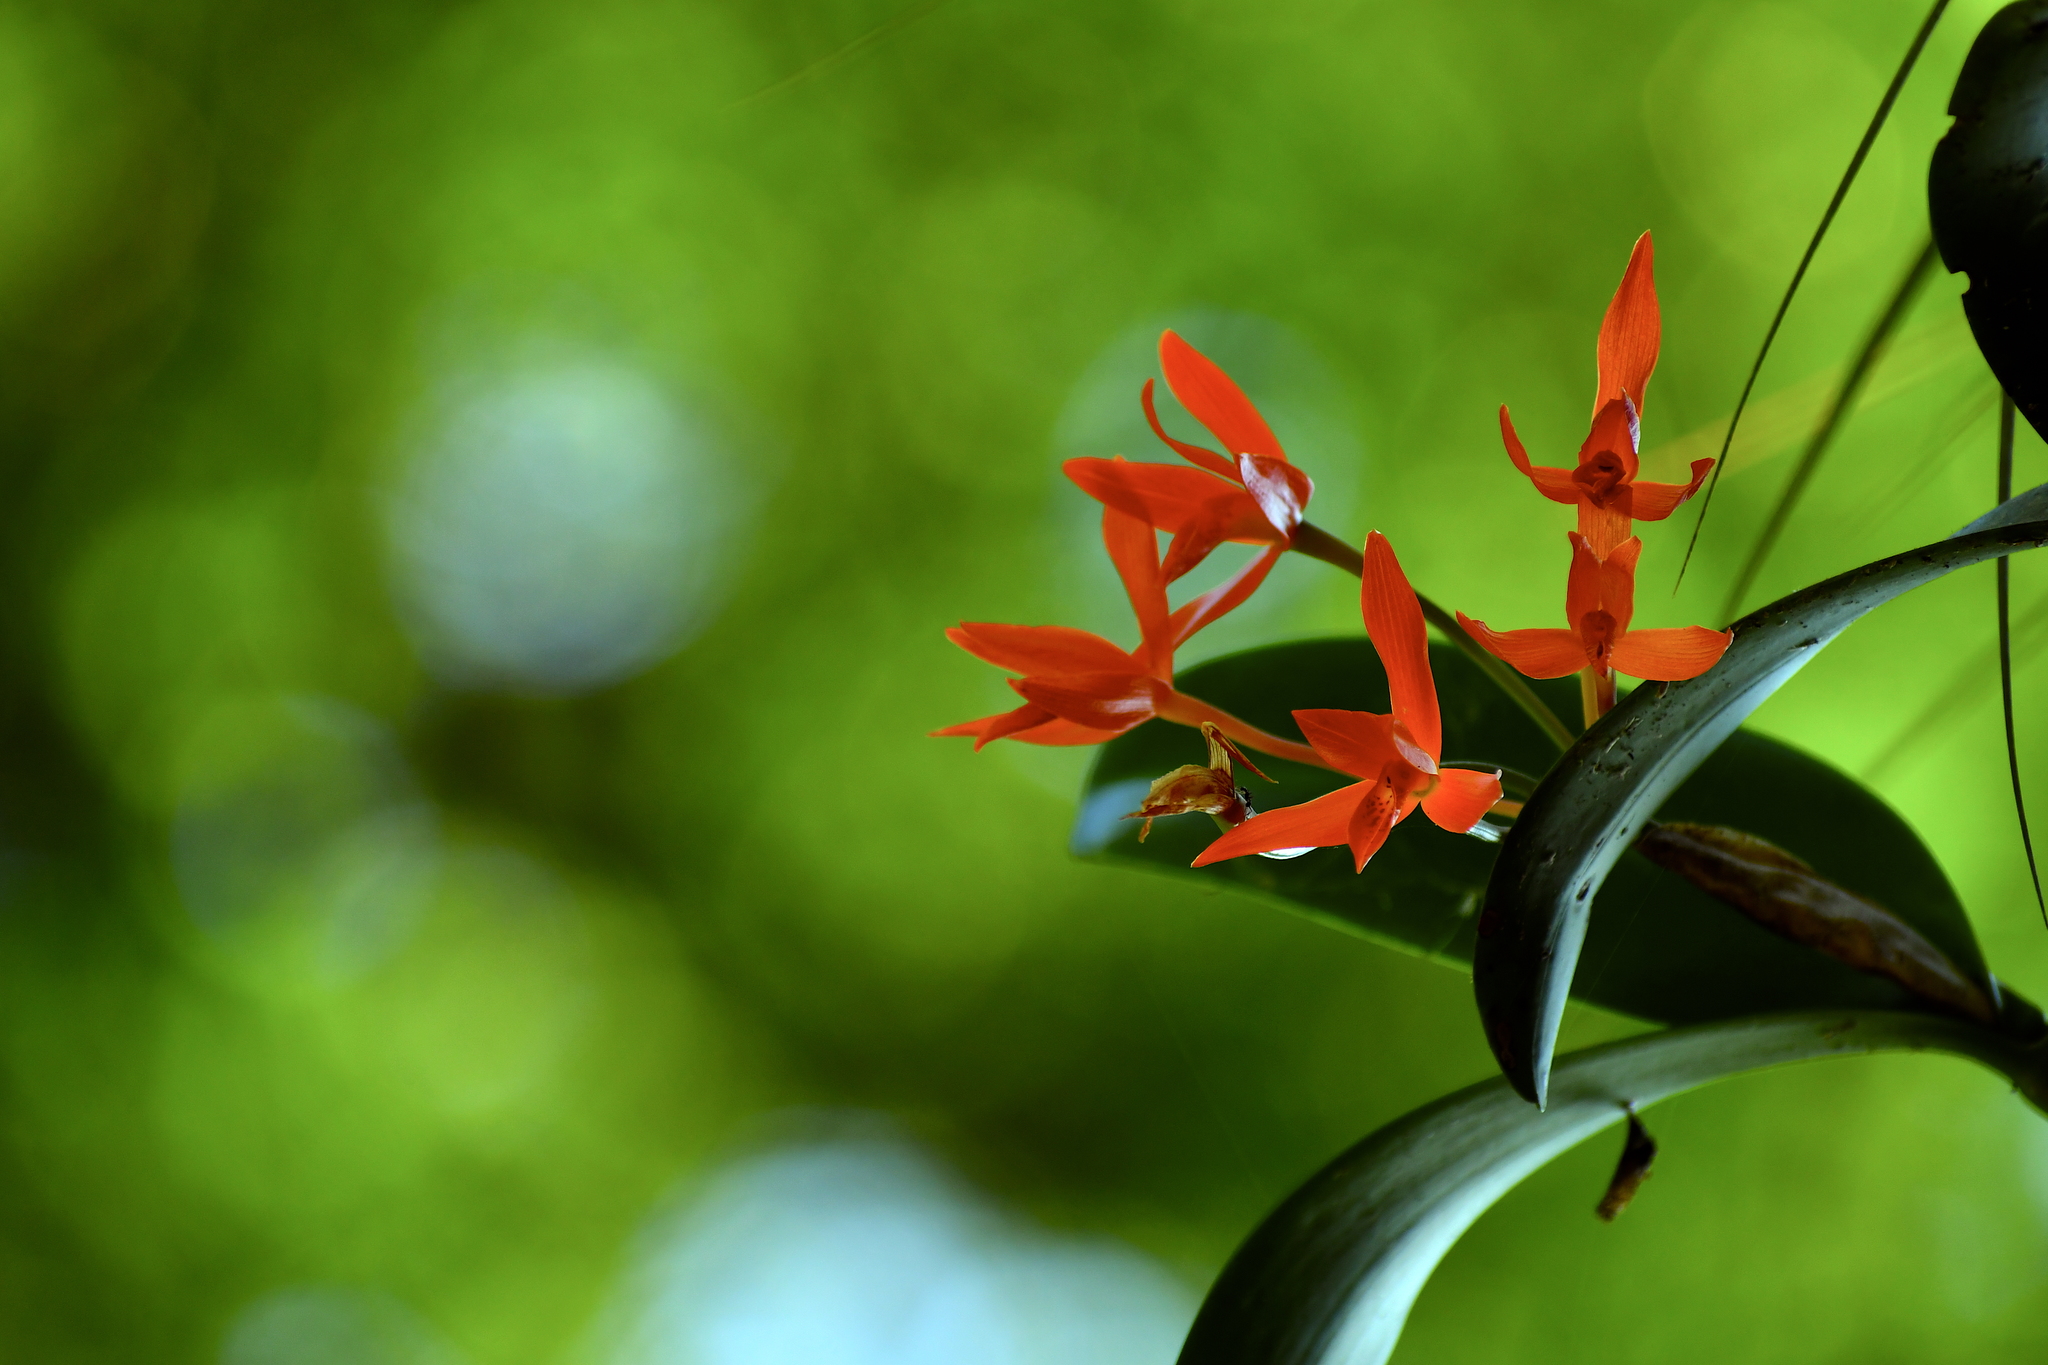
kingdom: Plantae
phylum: Tracheophyta
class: Liliopsida
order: Asparagales
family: Orchidaceae
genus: Guarianthe
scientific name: Guarianthe aurantiaca
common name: Orange cattleya
